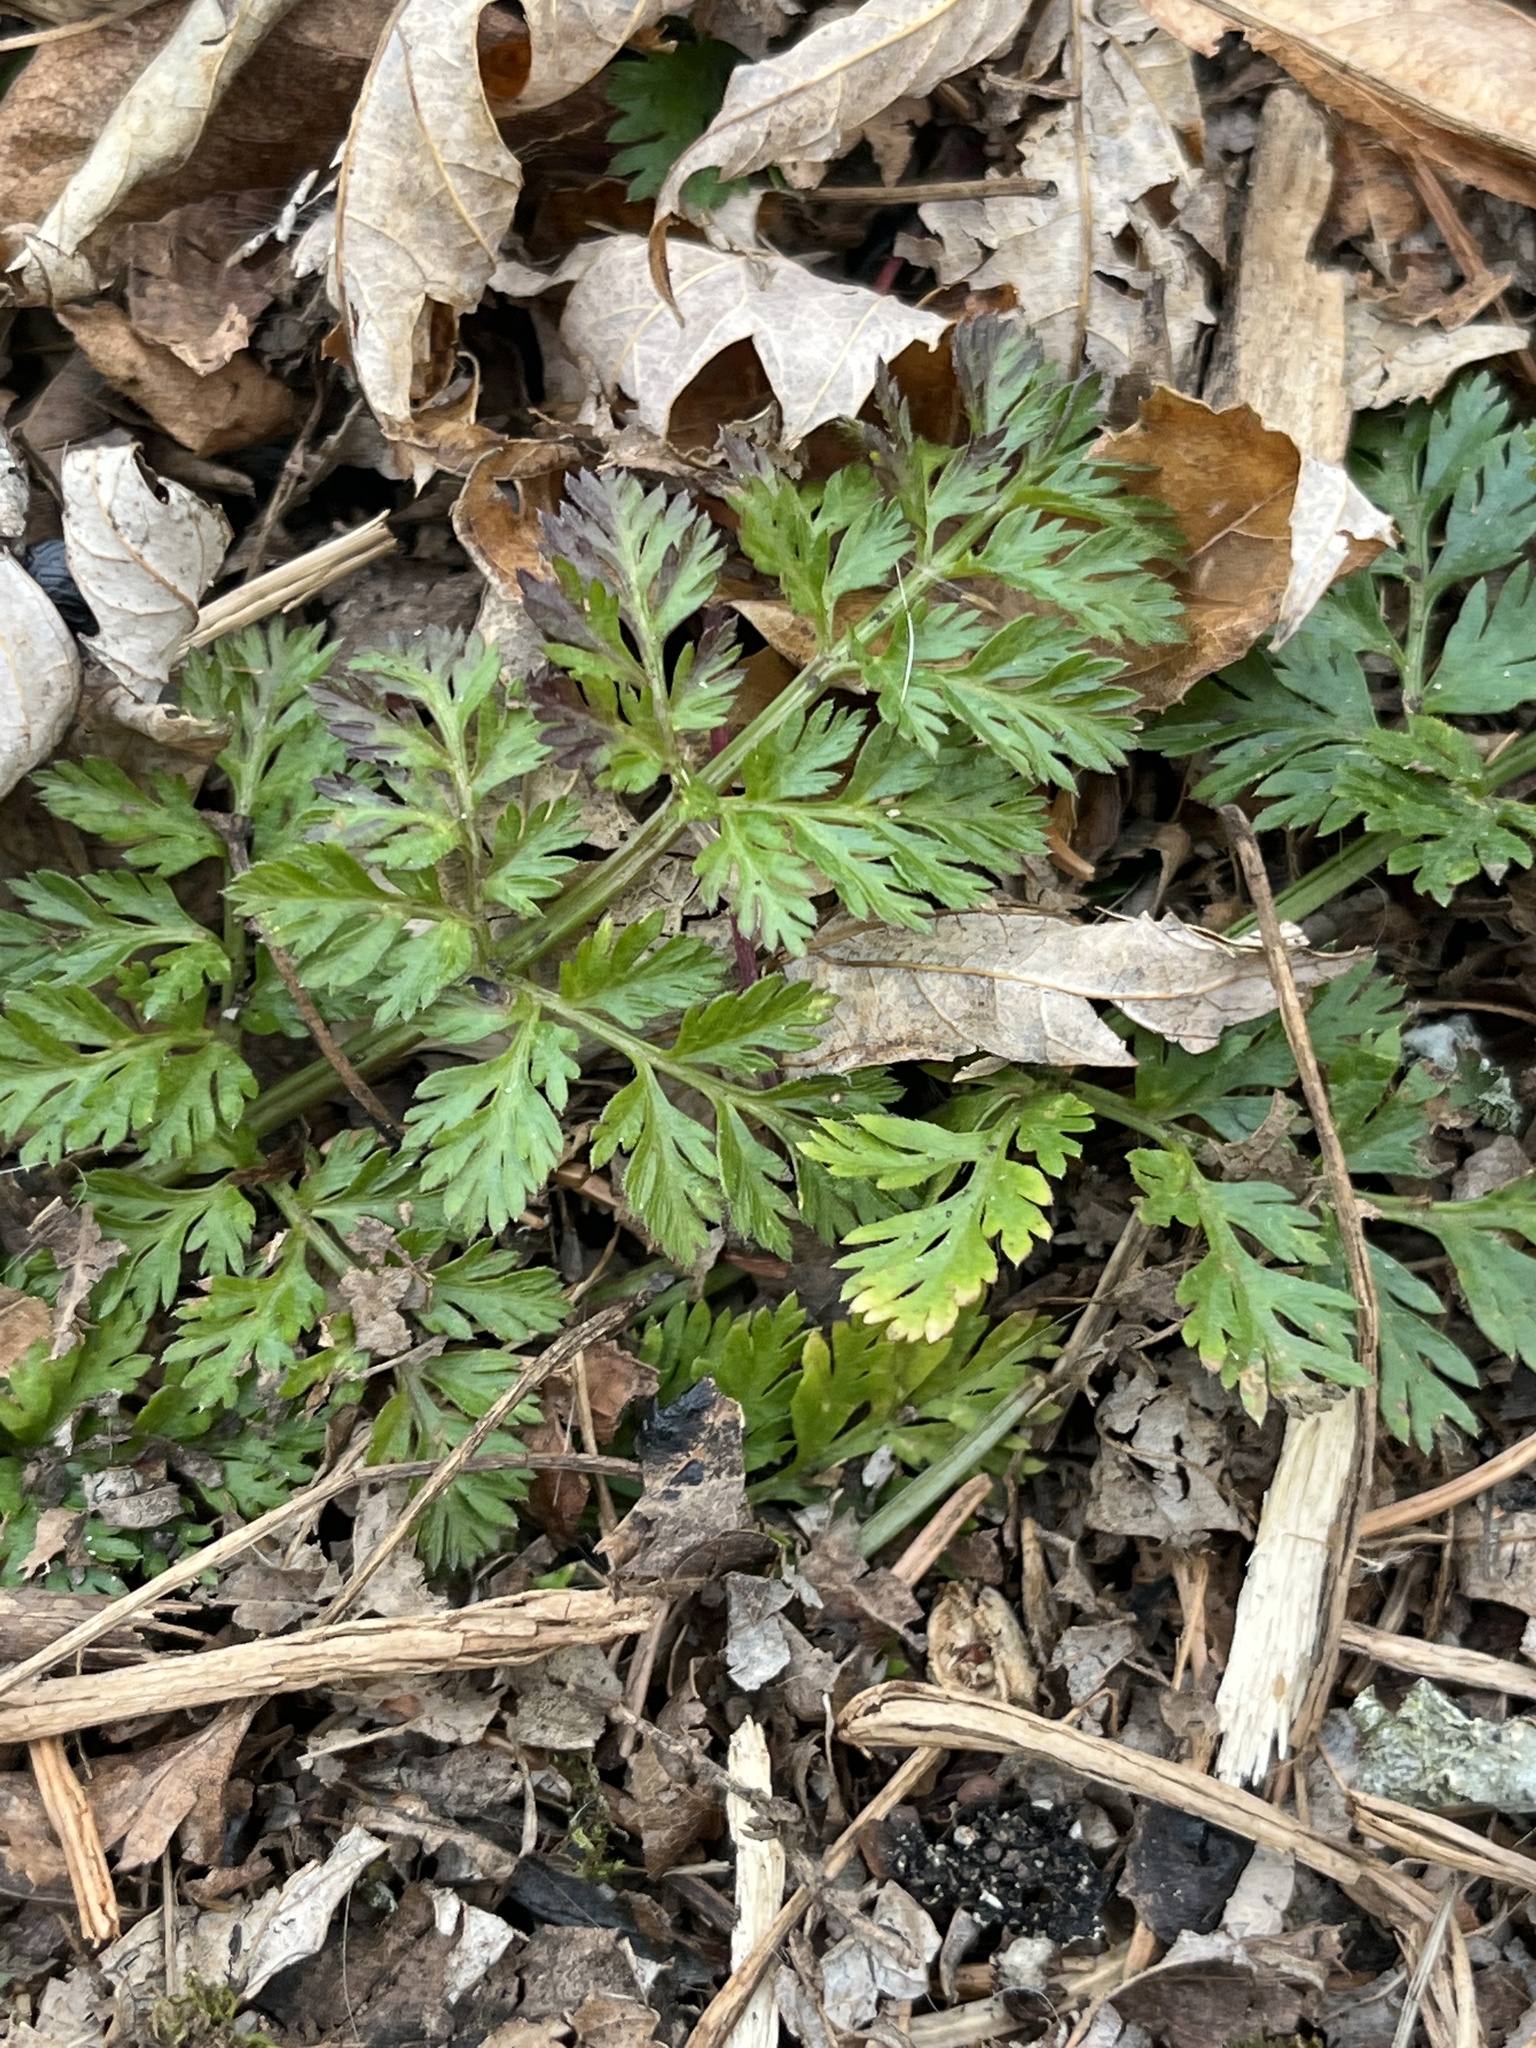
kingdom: Plantae
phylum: Tracheophyta
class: Magnoliopsida
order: Apiales
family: Apiaceae
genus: Chaerophyllum
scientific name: Chaerophyllum procumbens
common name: Spreading chervil
